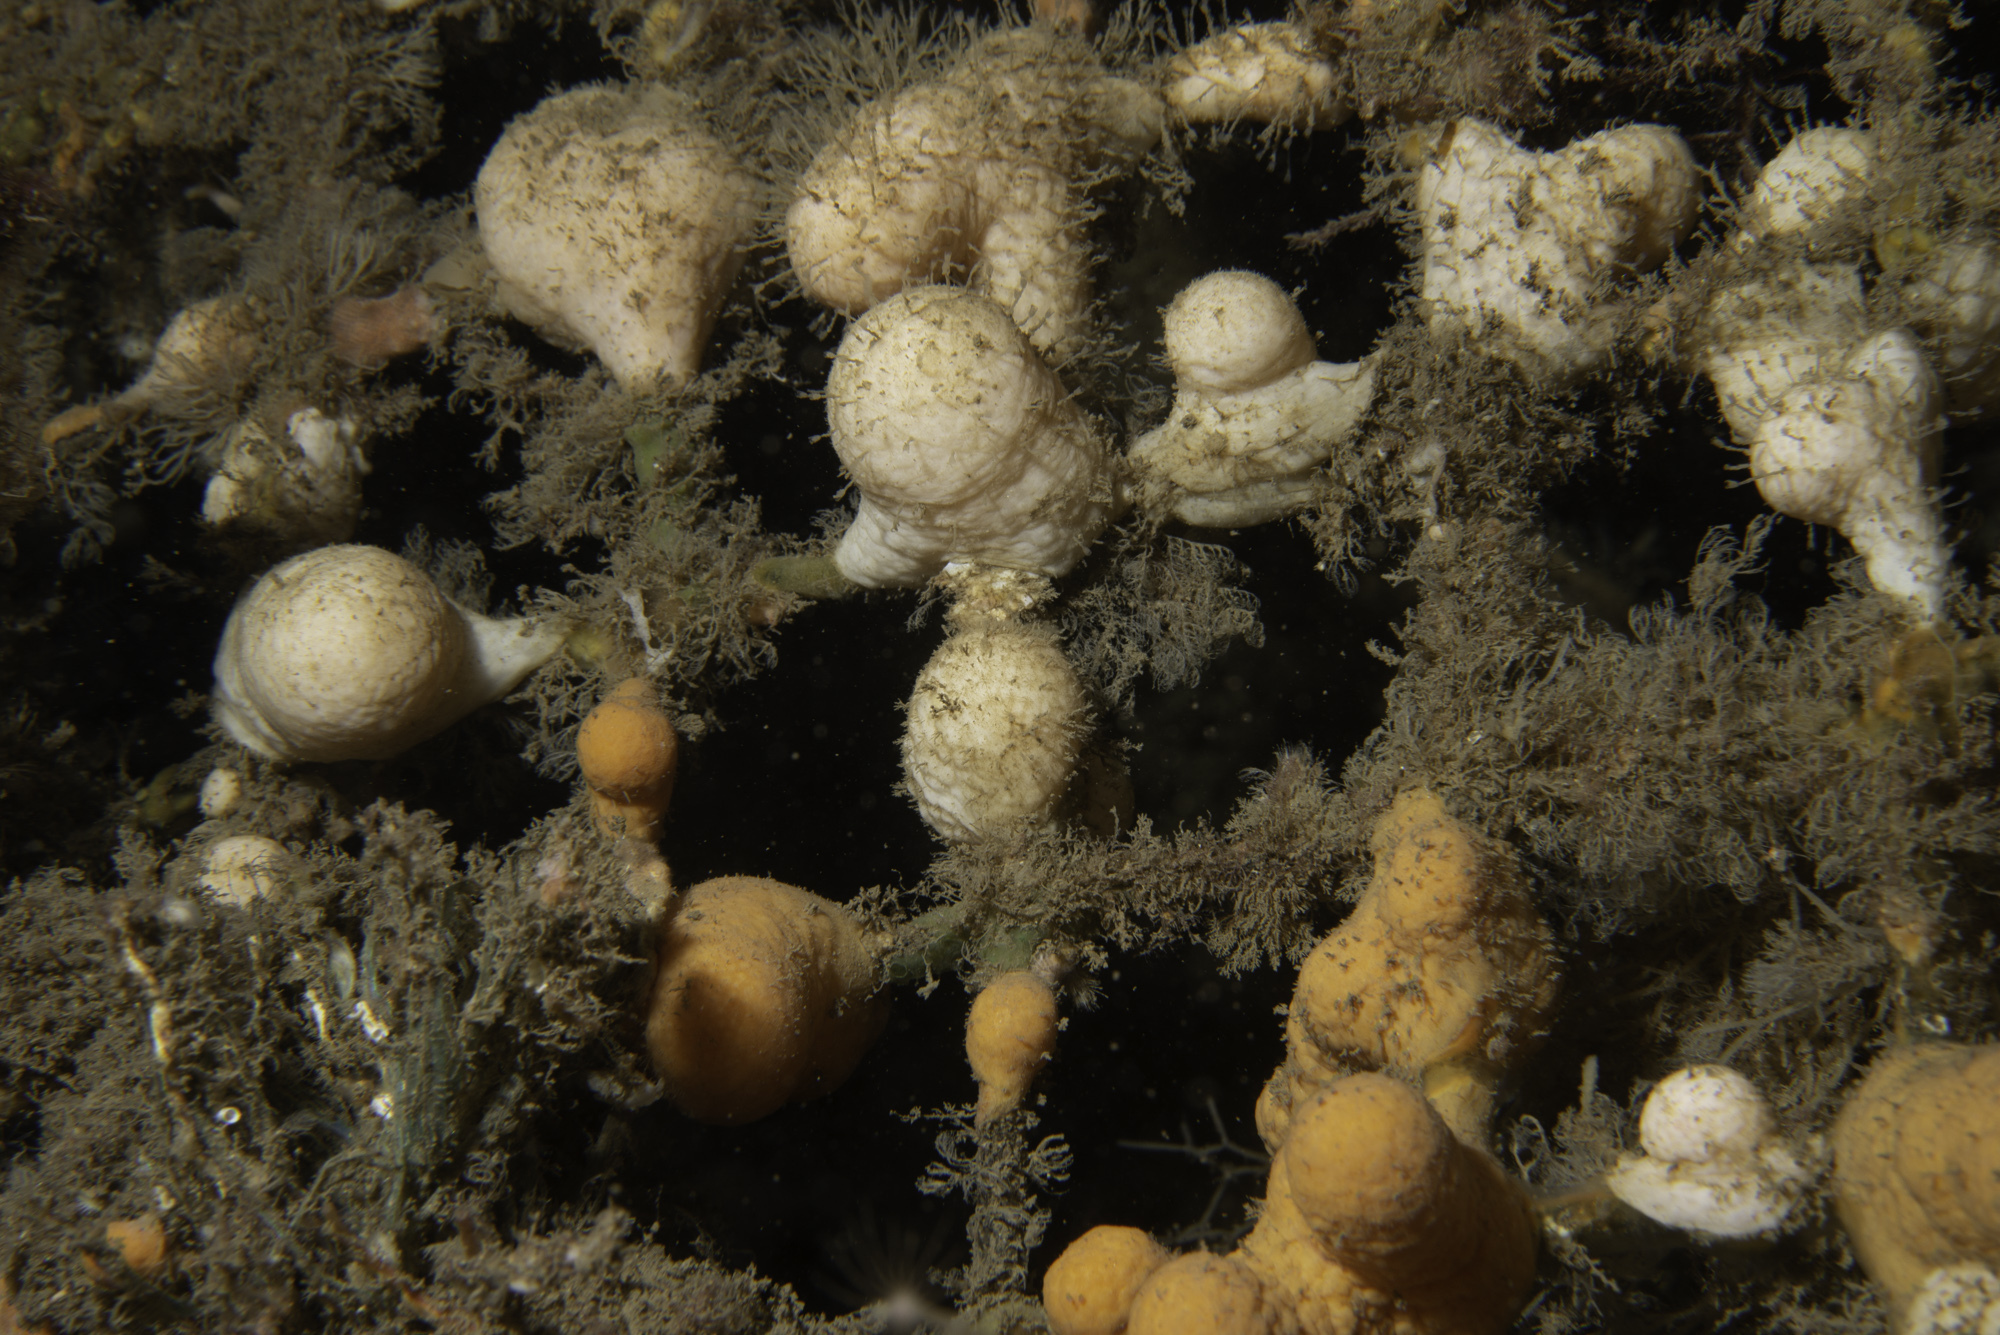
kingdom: Animalia
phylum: Cnidaria
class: Anthozoa
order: Malacalcyonacea
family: Alcyoniidae
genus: Alcyonium
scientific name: Alcyonium digitatum
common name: Dead man's fingers
